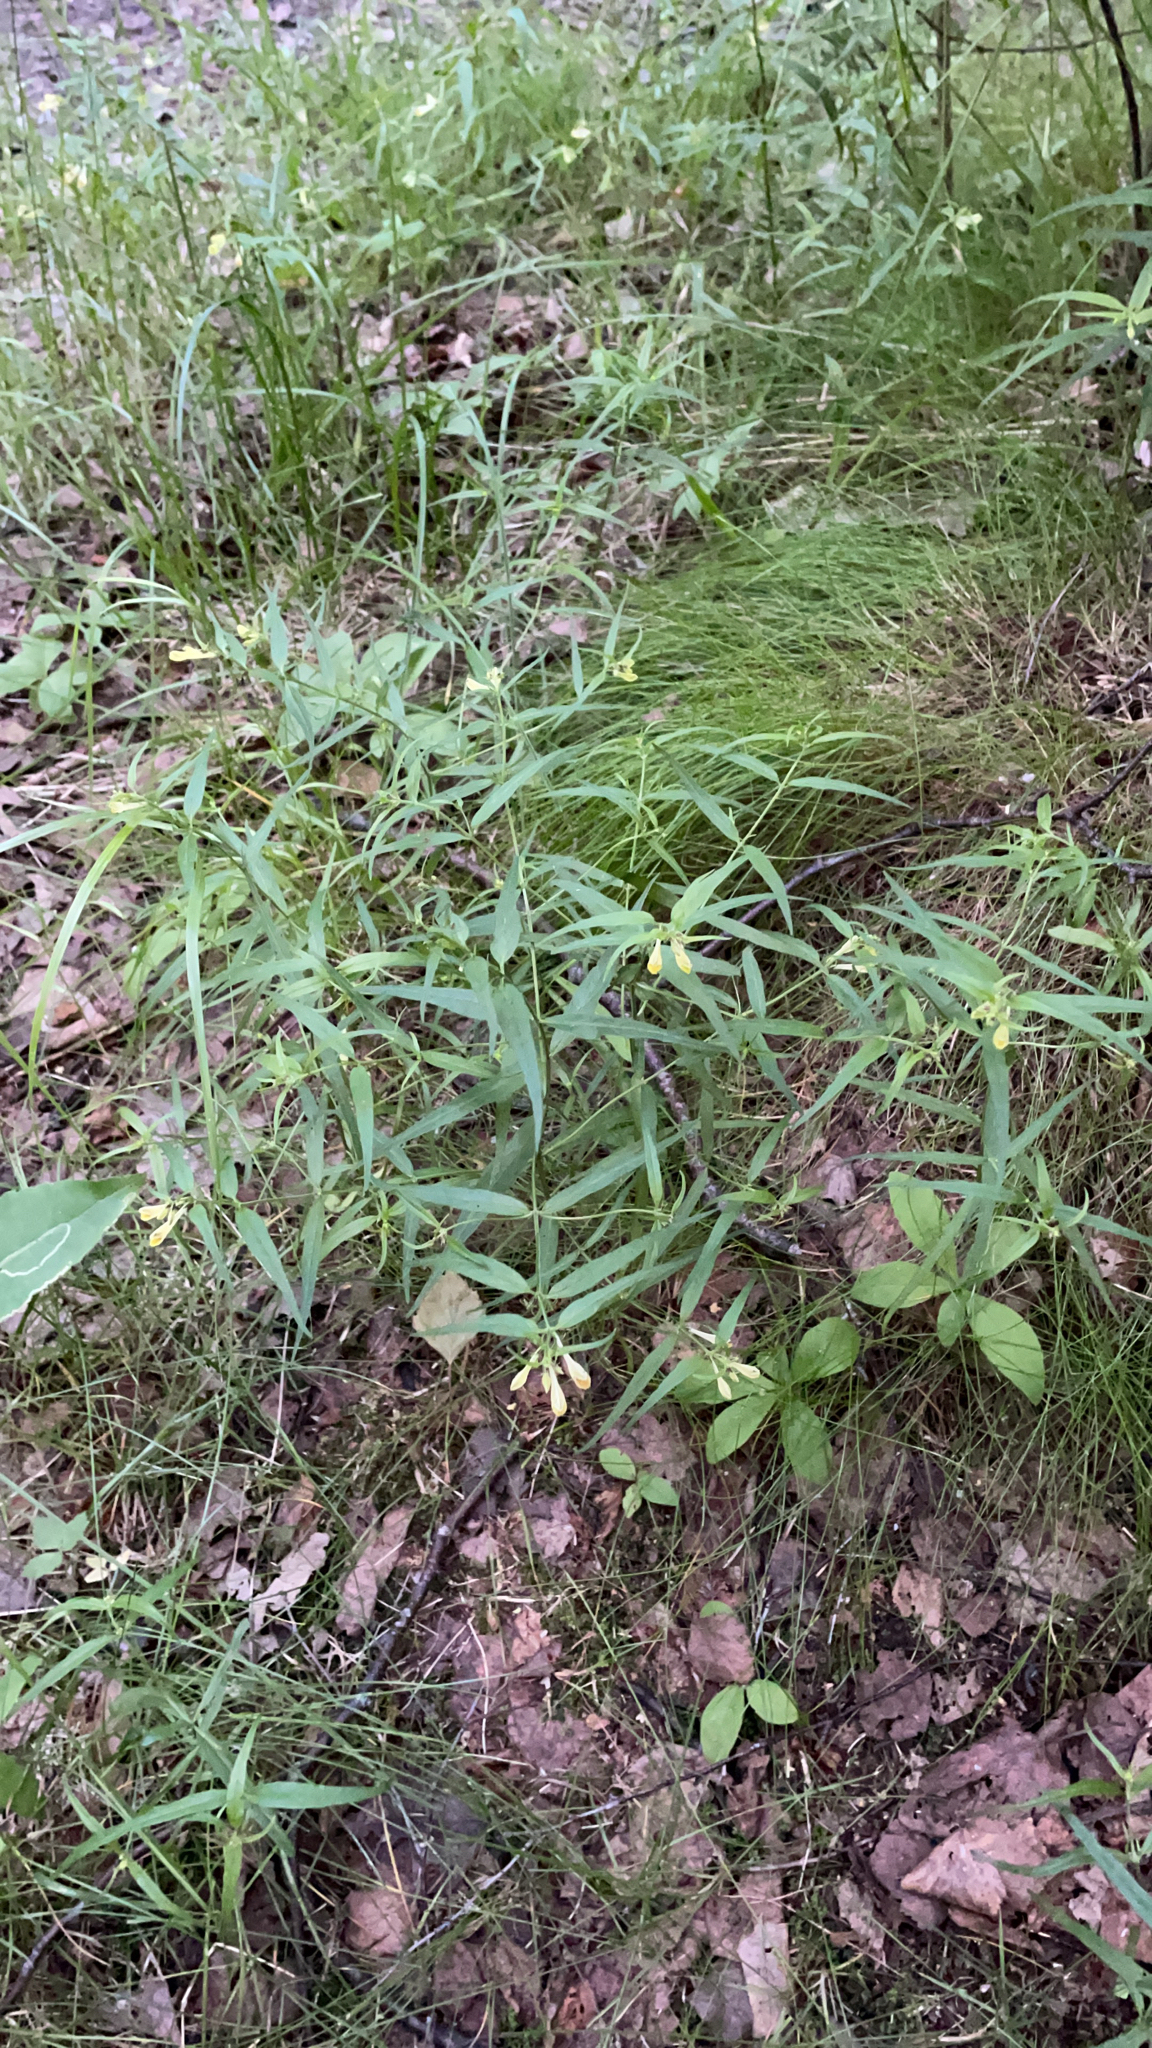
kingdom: Plantae
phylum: Tracheophyta
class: Magnoliopsida
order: Lamiales
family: Orobanchaceae
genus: Melampyrum
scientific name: Melampyrum pratense
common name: Common cow-wheat
